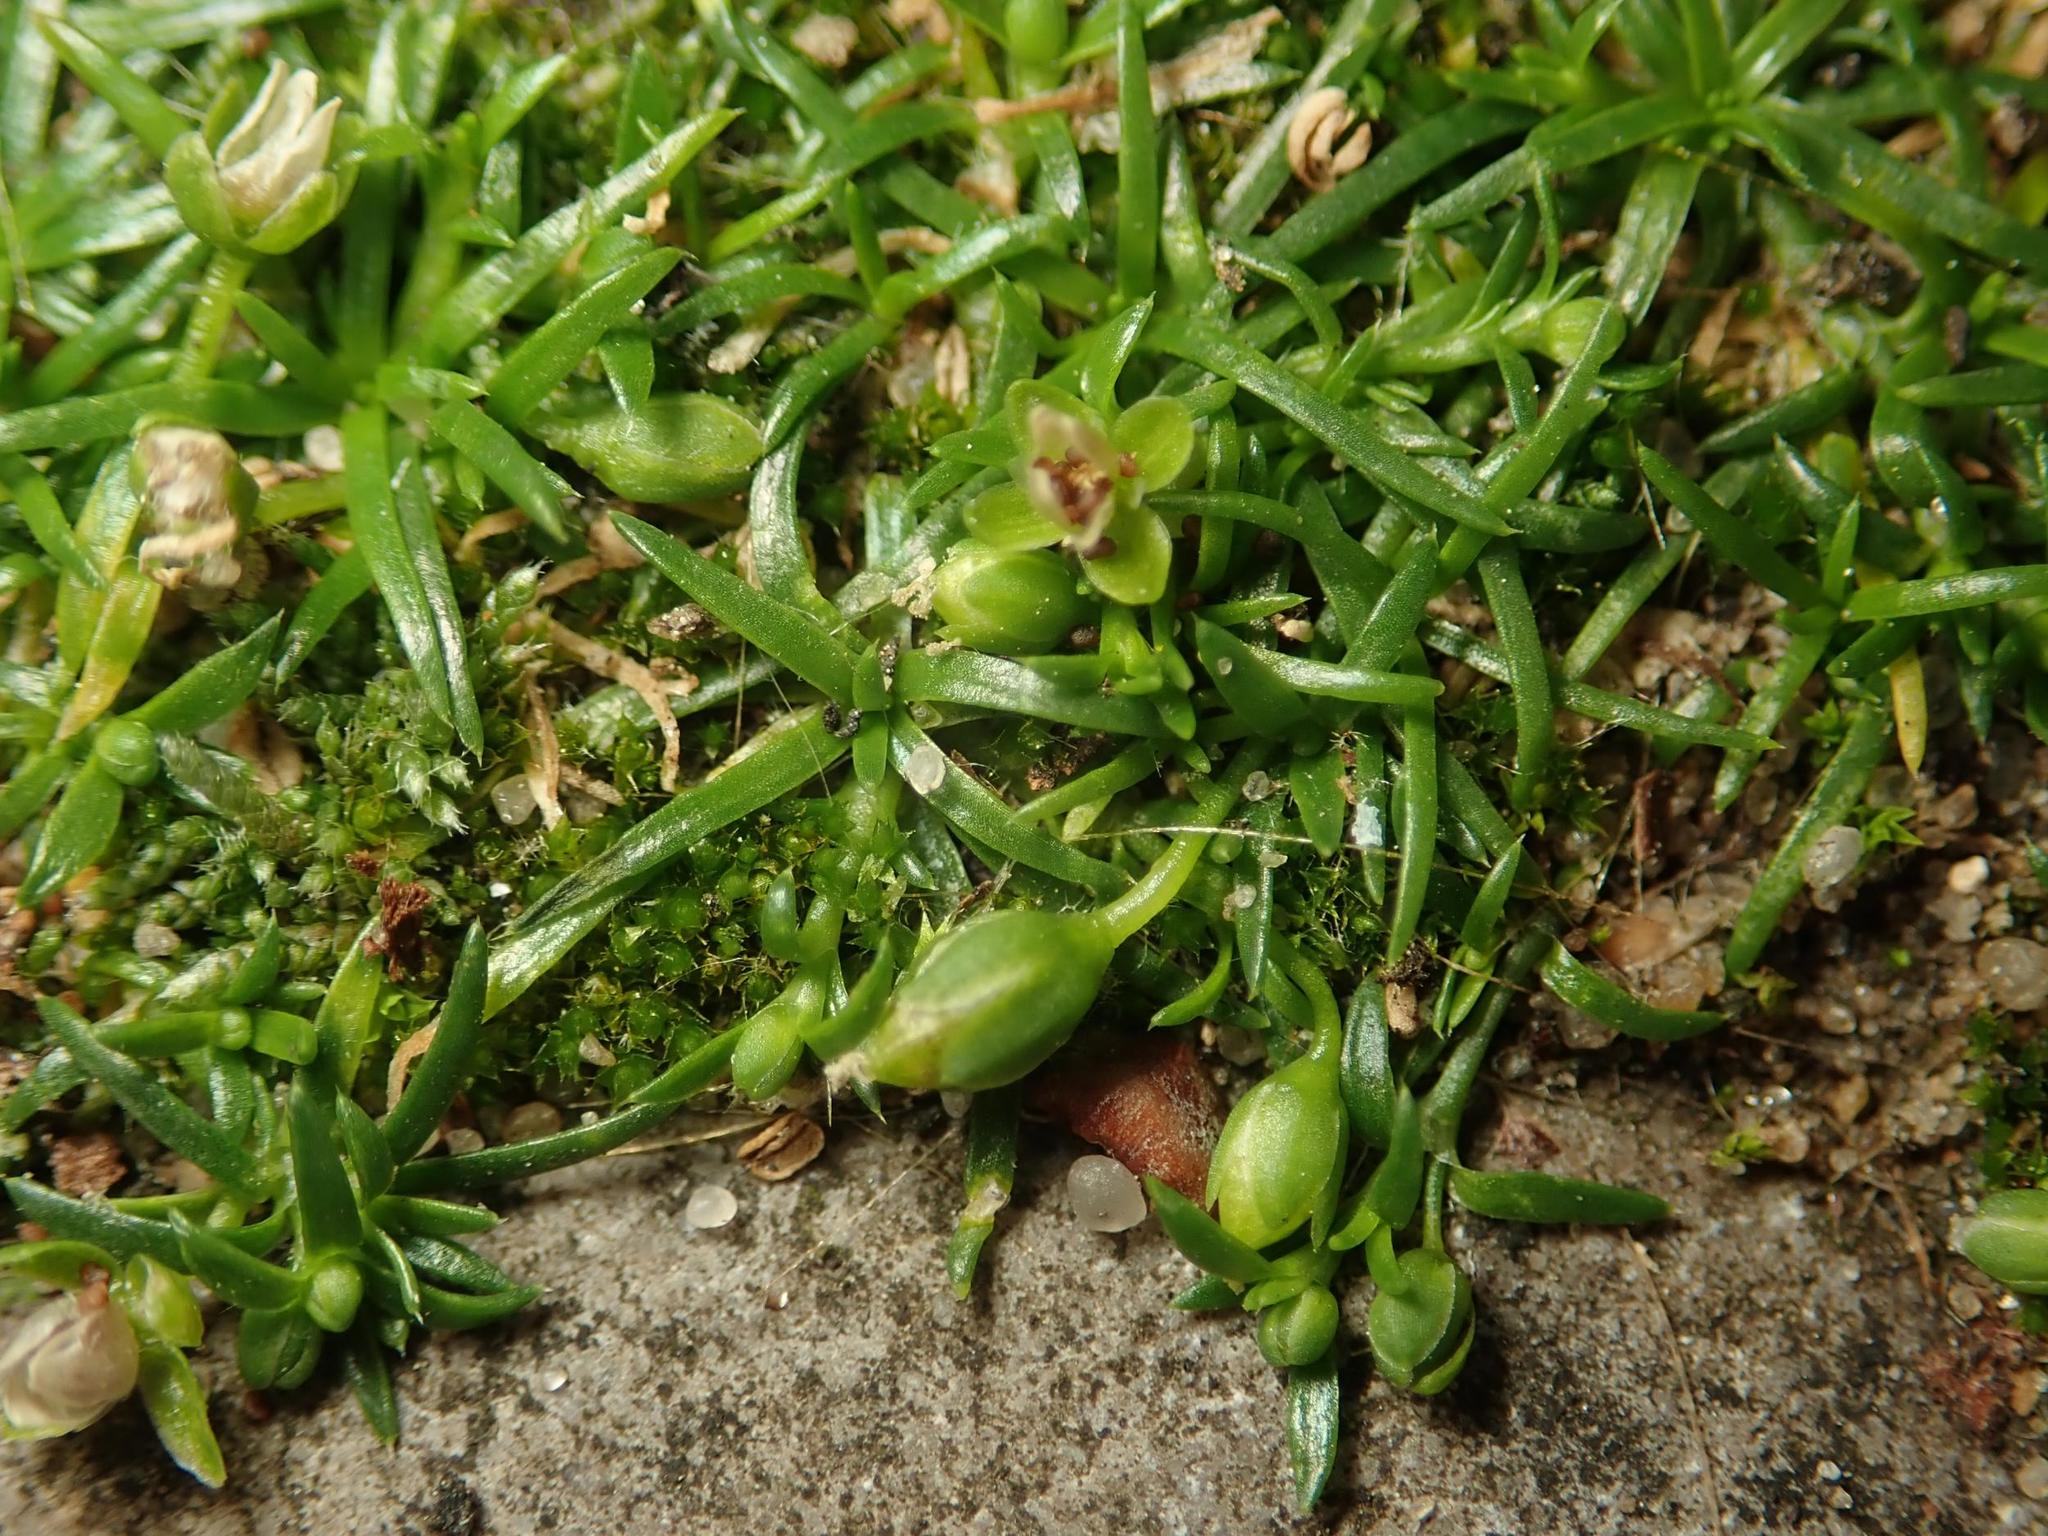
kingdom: Plantae
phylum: Tracheophyta
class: Magnoliopsida
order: Caryophyllales
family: Caryophyllaceae
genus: Sagina
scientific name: Sagina procumbens
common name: Procumbent pearlwort
